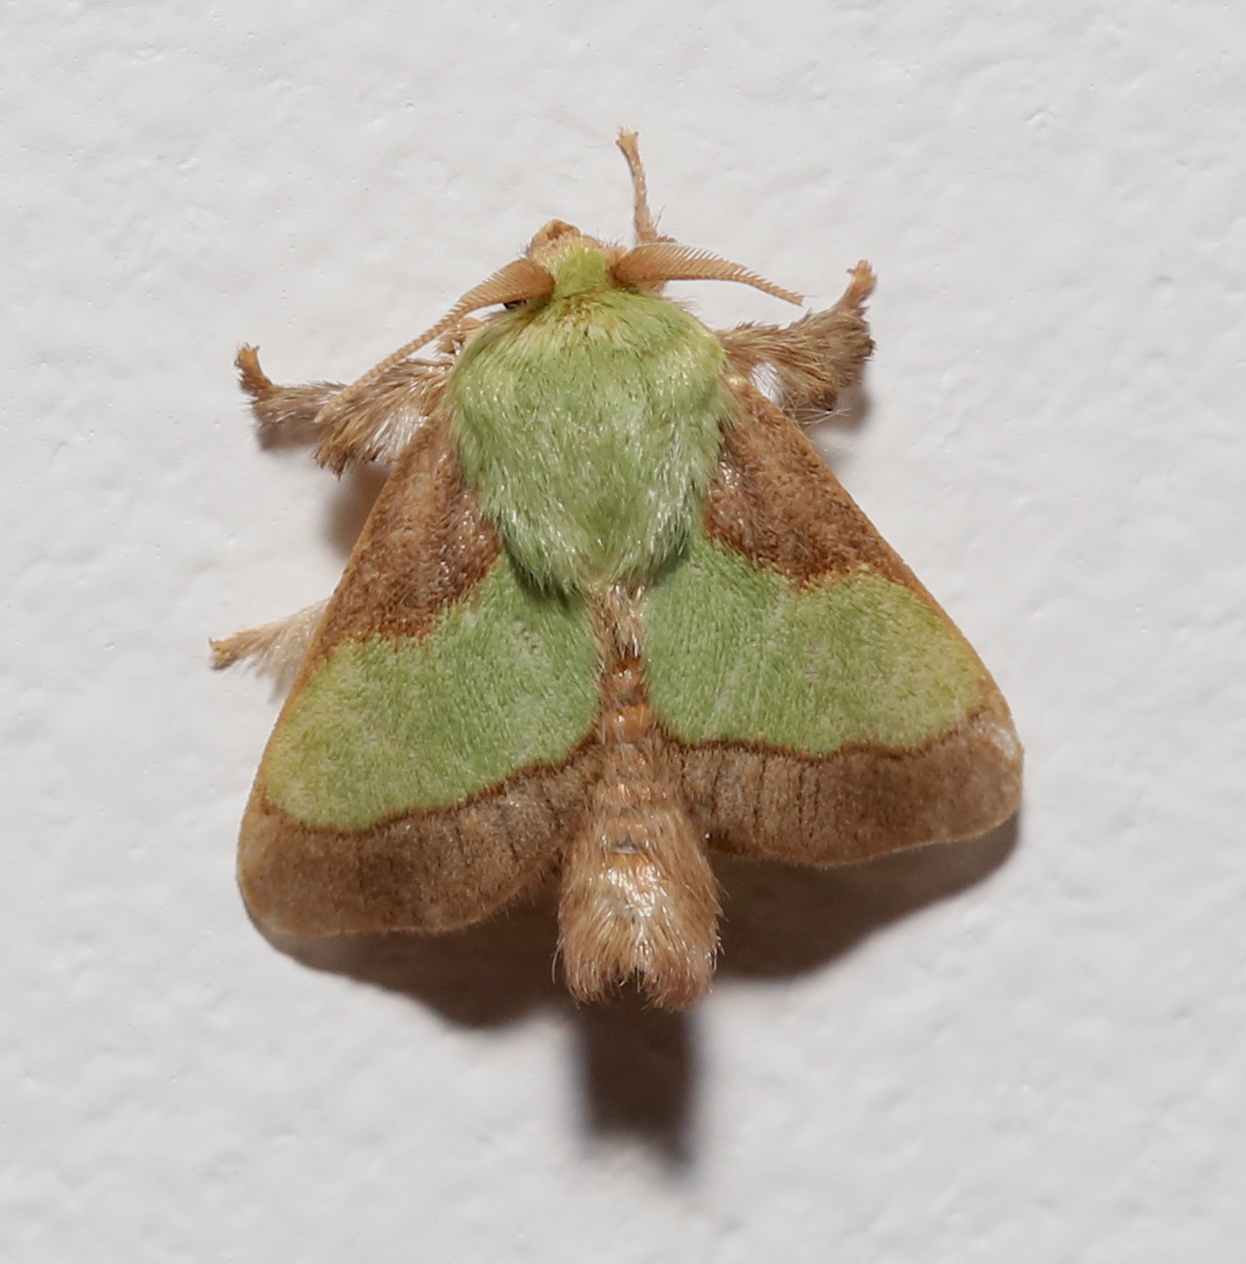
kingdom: Animalia
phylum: Arthropoda
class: Insecta
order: Lepidoptera
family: Limacodidae
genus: Parasa
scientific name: Parasa chloris
